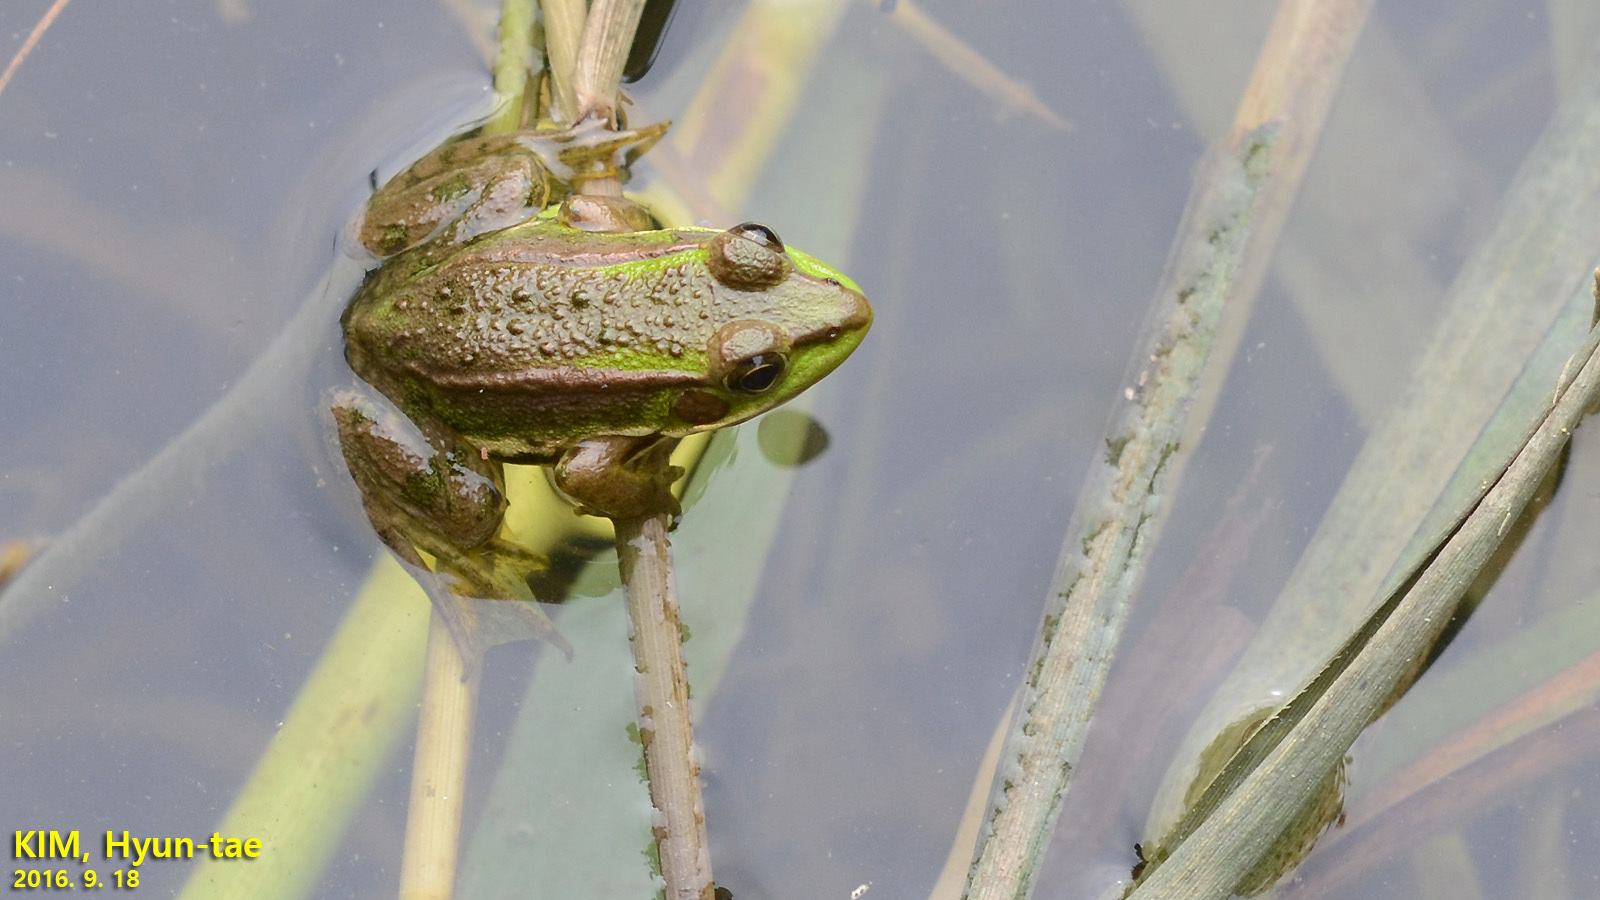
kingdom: Animalia
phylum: Chordata
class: Amphibia
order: Anura
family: Ranidae
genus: Pelophylax
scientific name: Pelophylax chosenicus
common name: Gold-spotted pond frog
